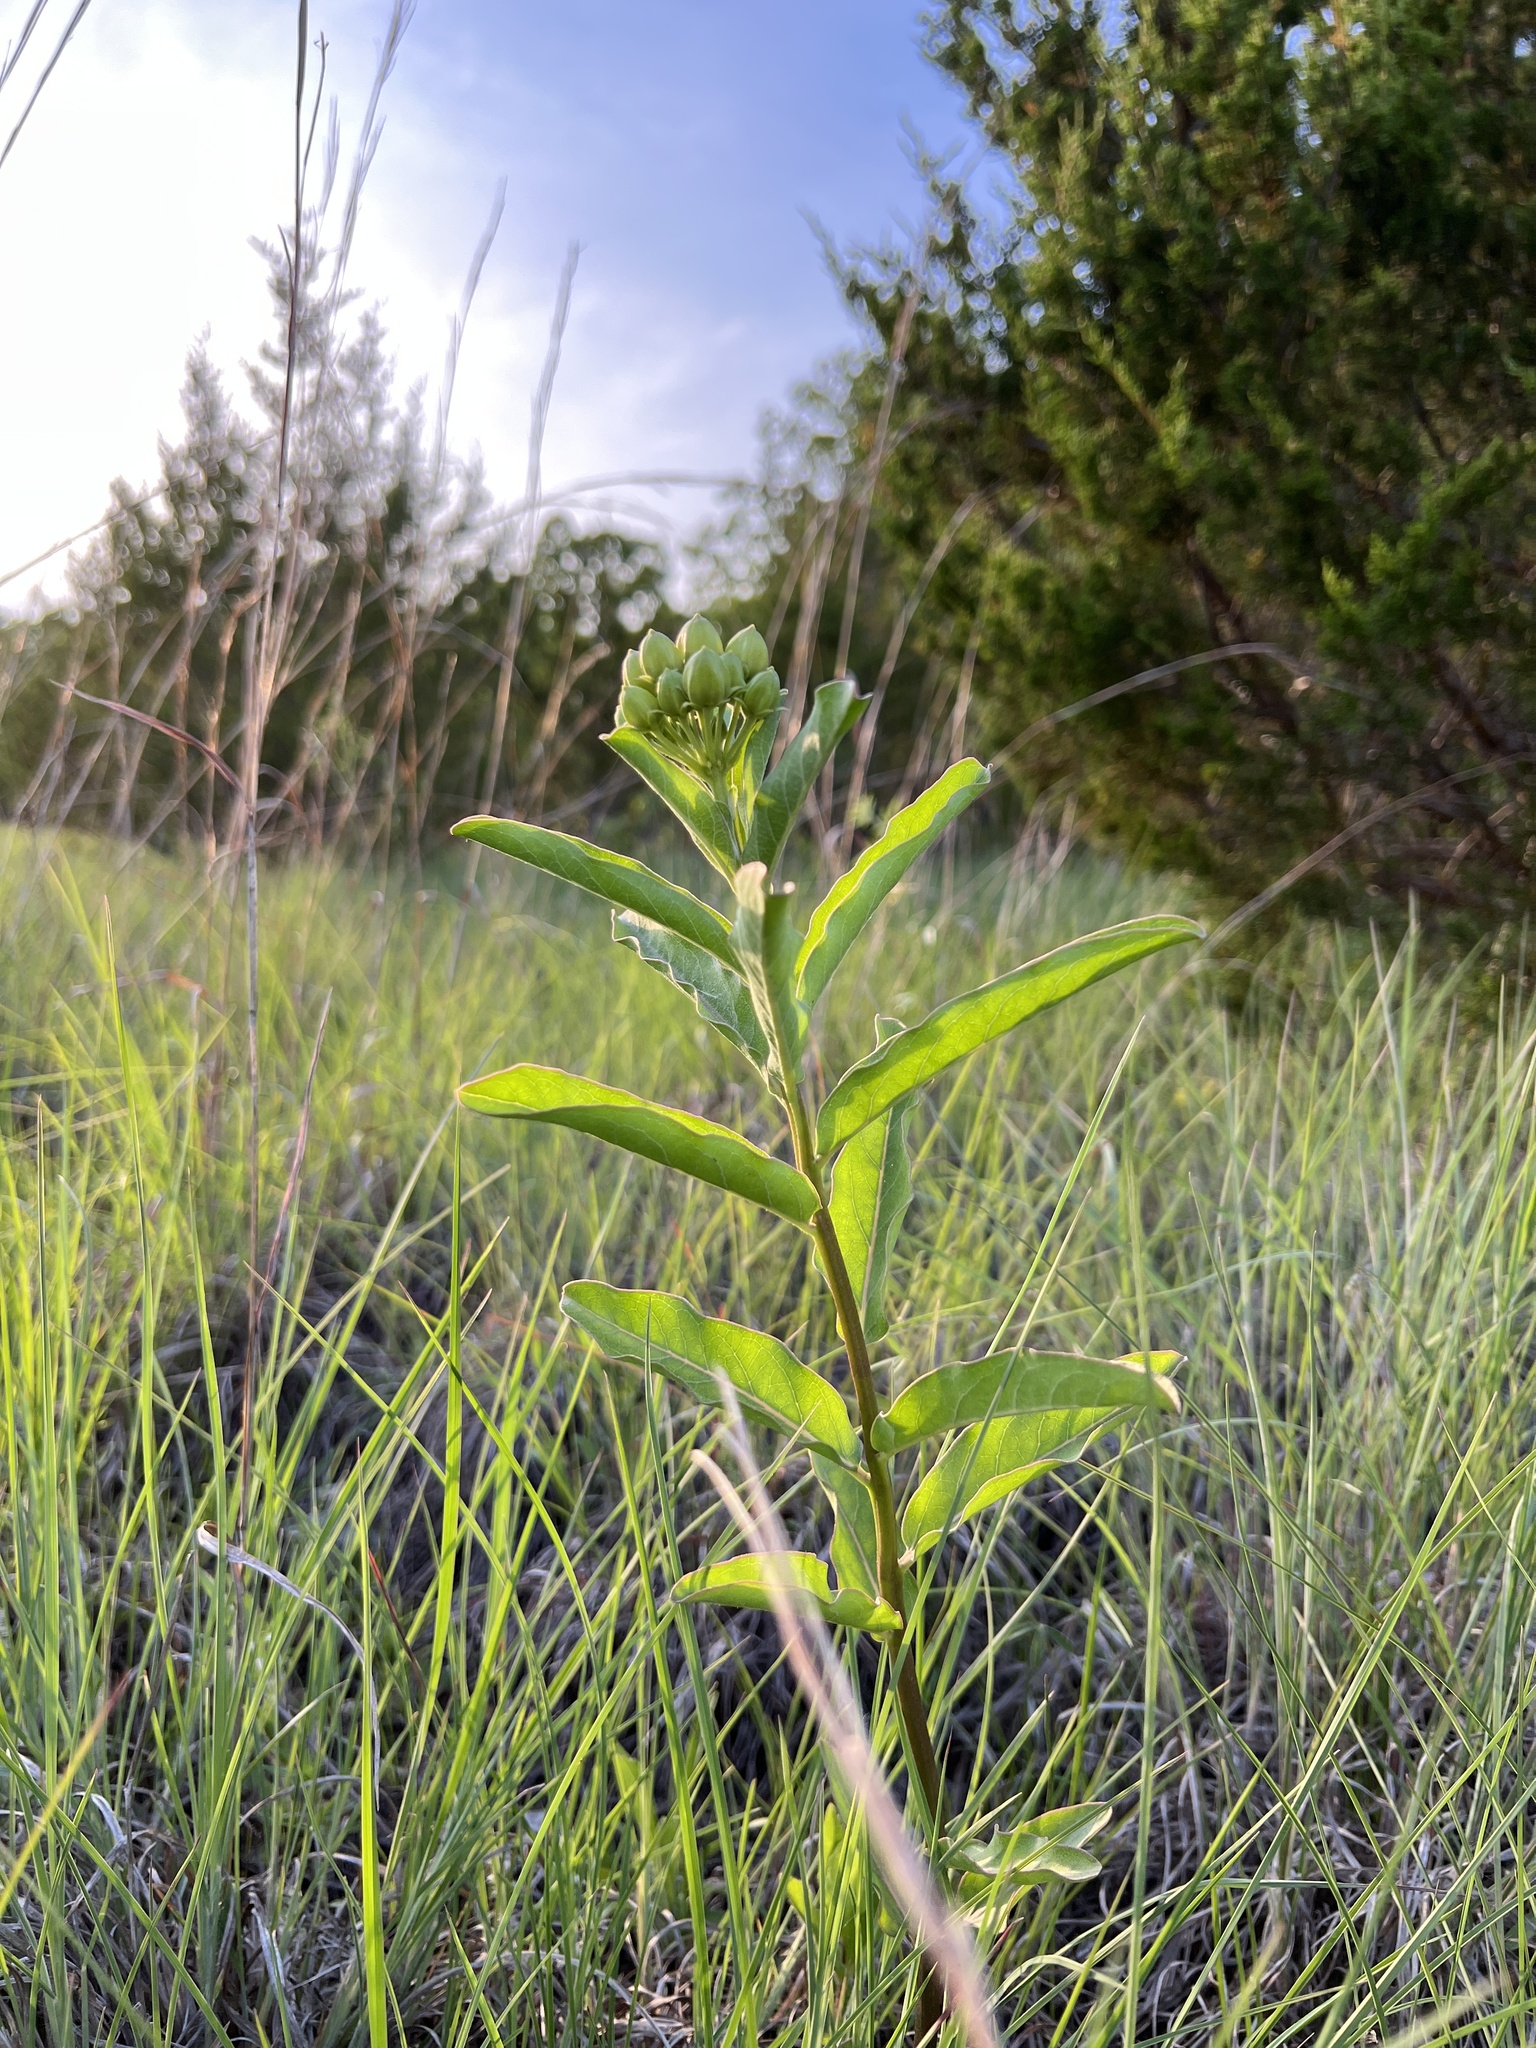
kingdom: Plantae
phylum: Tracheophyta
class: Magnoliopsida
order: Gentianales
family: Apocynaceae
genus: Asclepias
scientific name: Asclepias viridis
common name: Antelope-horns
